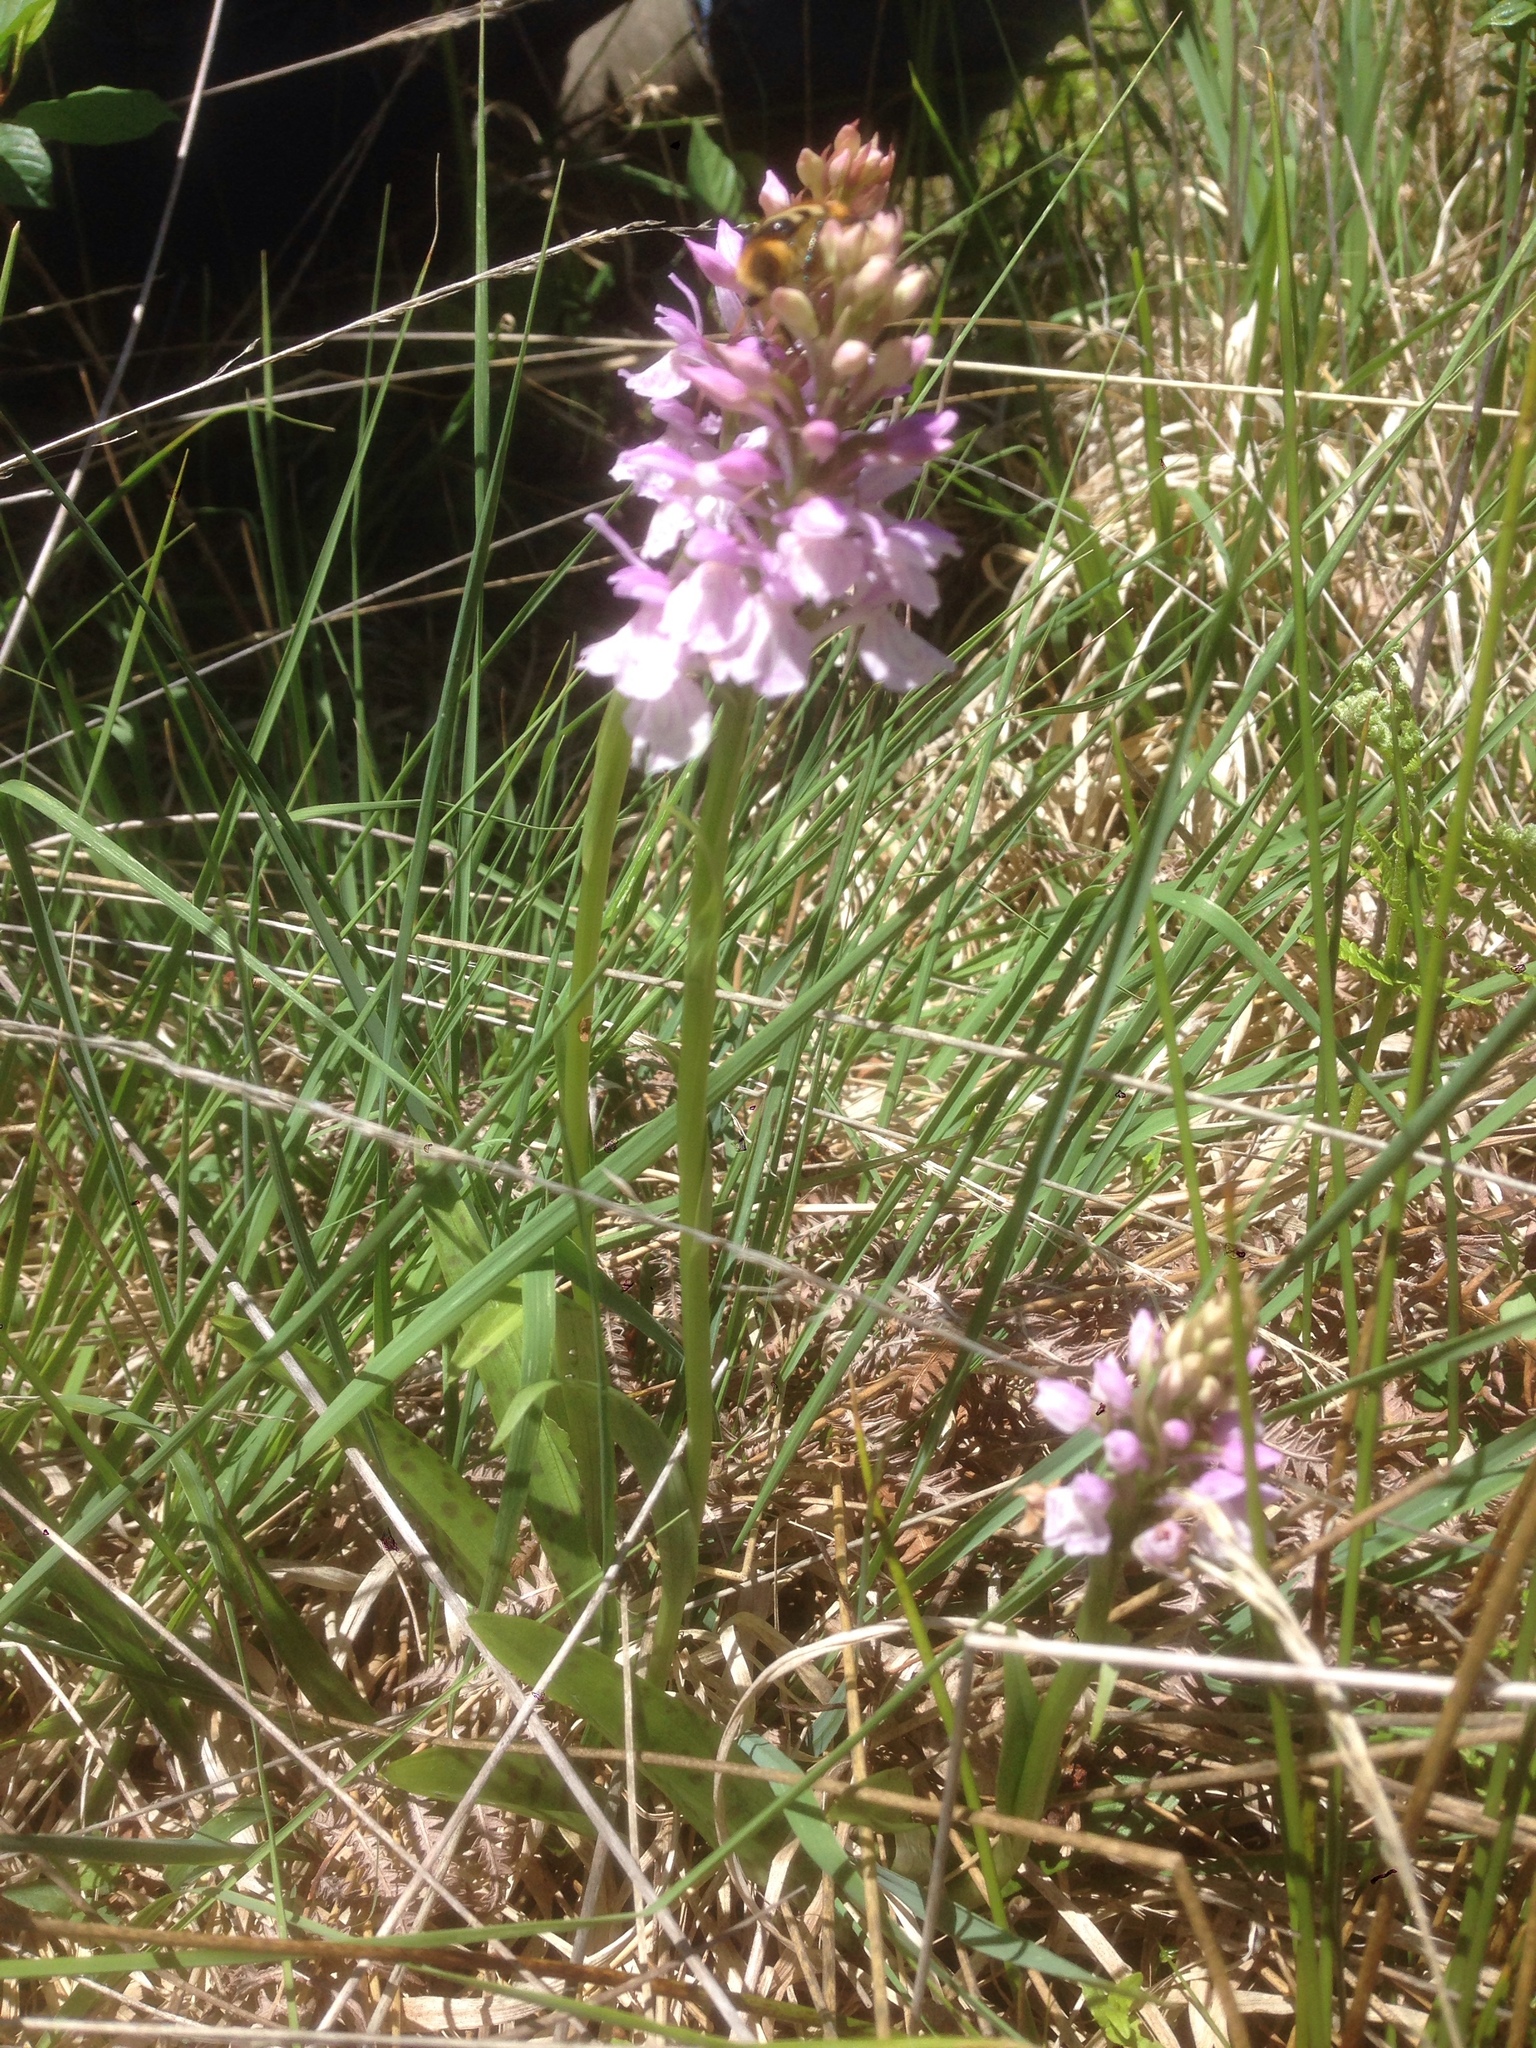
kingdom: Plantae
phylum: Tracheophyta
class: Liliopsida
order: Asparagales
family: Orchidaceae
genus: Dactylorhiza
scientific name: Dactylorhiza maculata
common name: Heath spotted-orchid
